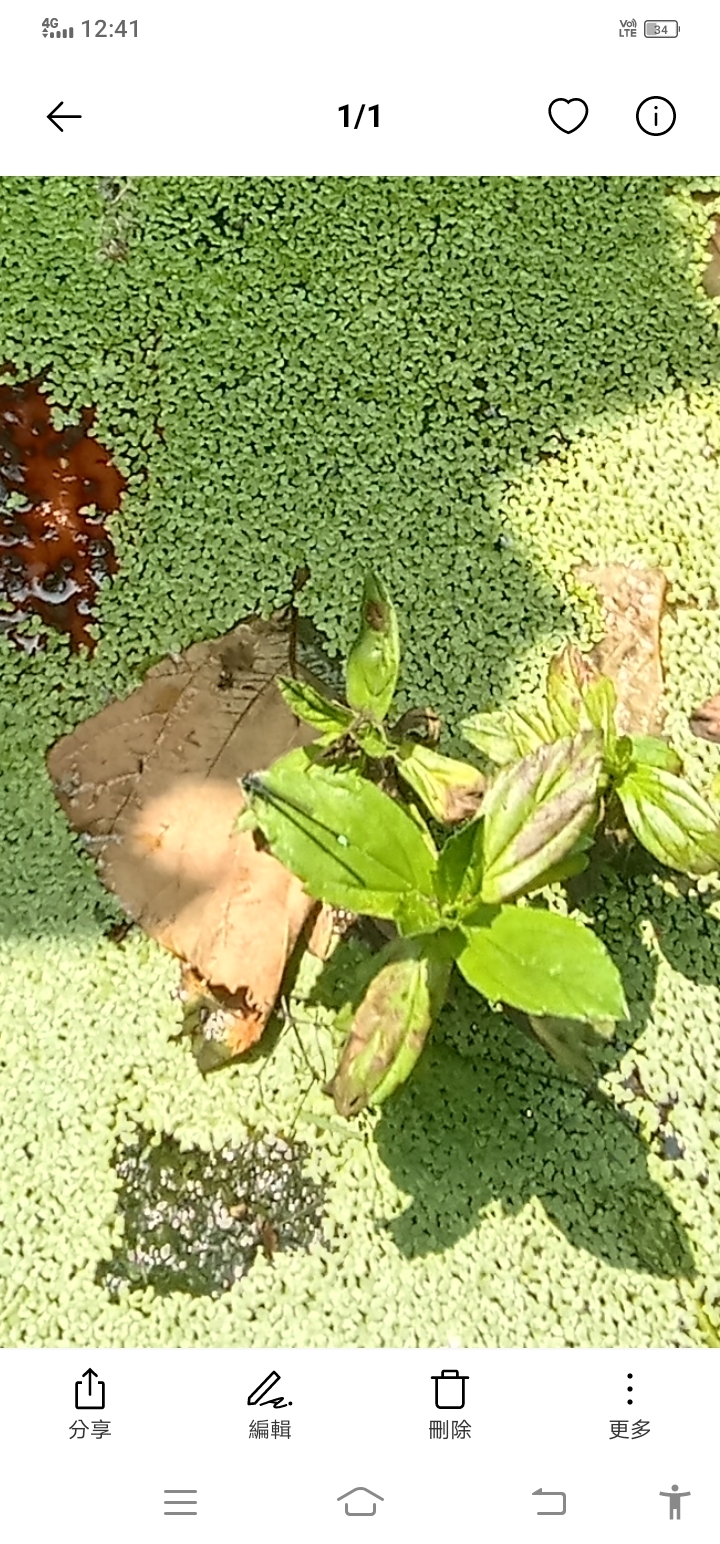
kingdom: Plantae
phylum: Tracheophyta
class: Liliopsida
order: Alismatales
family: Araceae
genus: Lemna
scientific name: Lemna aequinoctialis
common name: Duckweed
